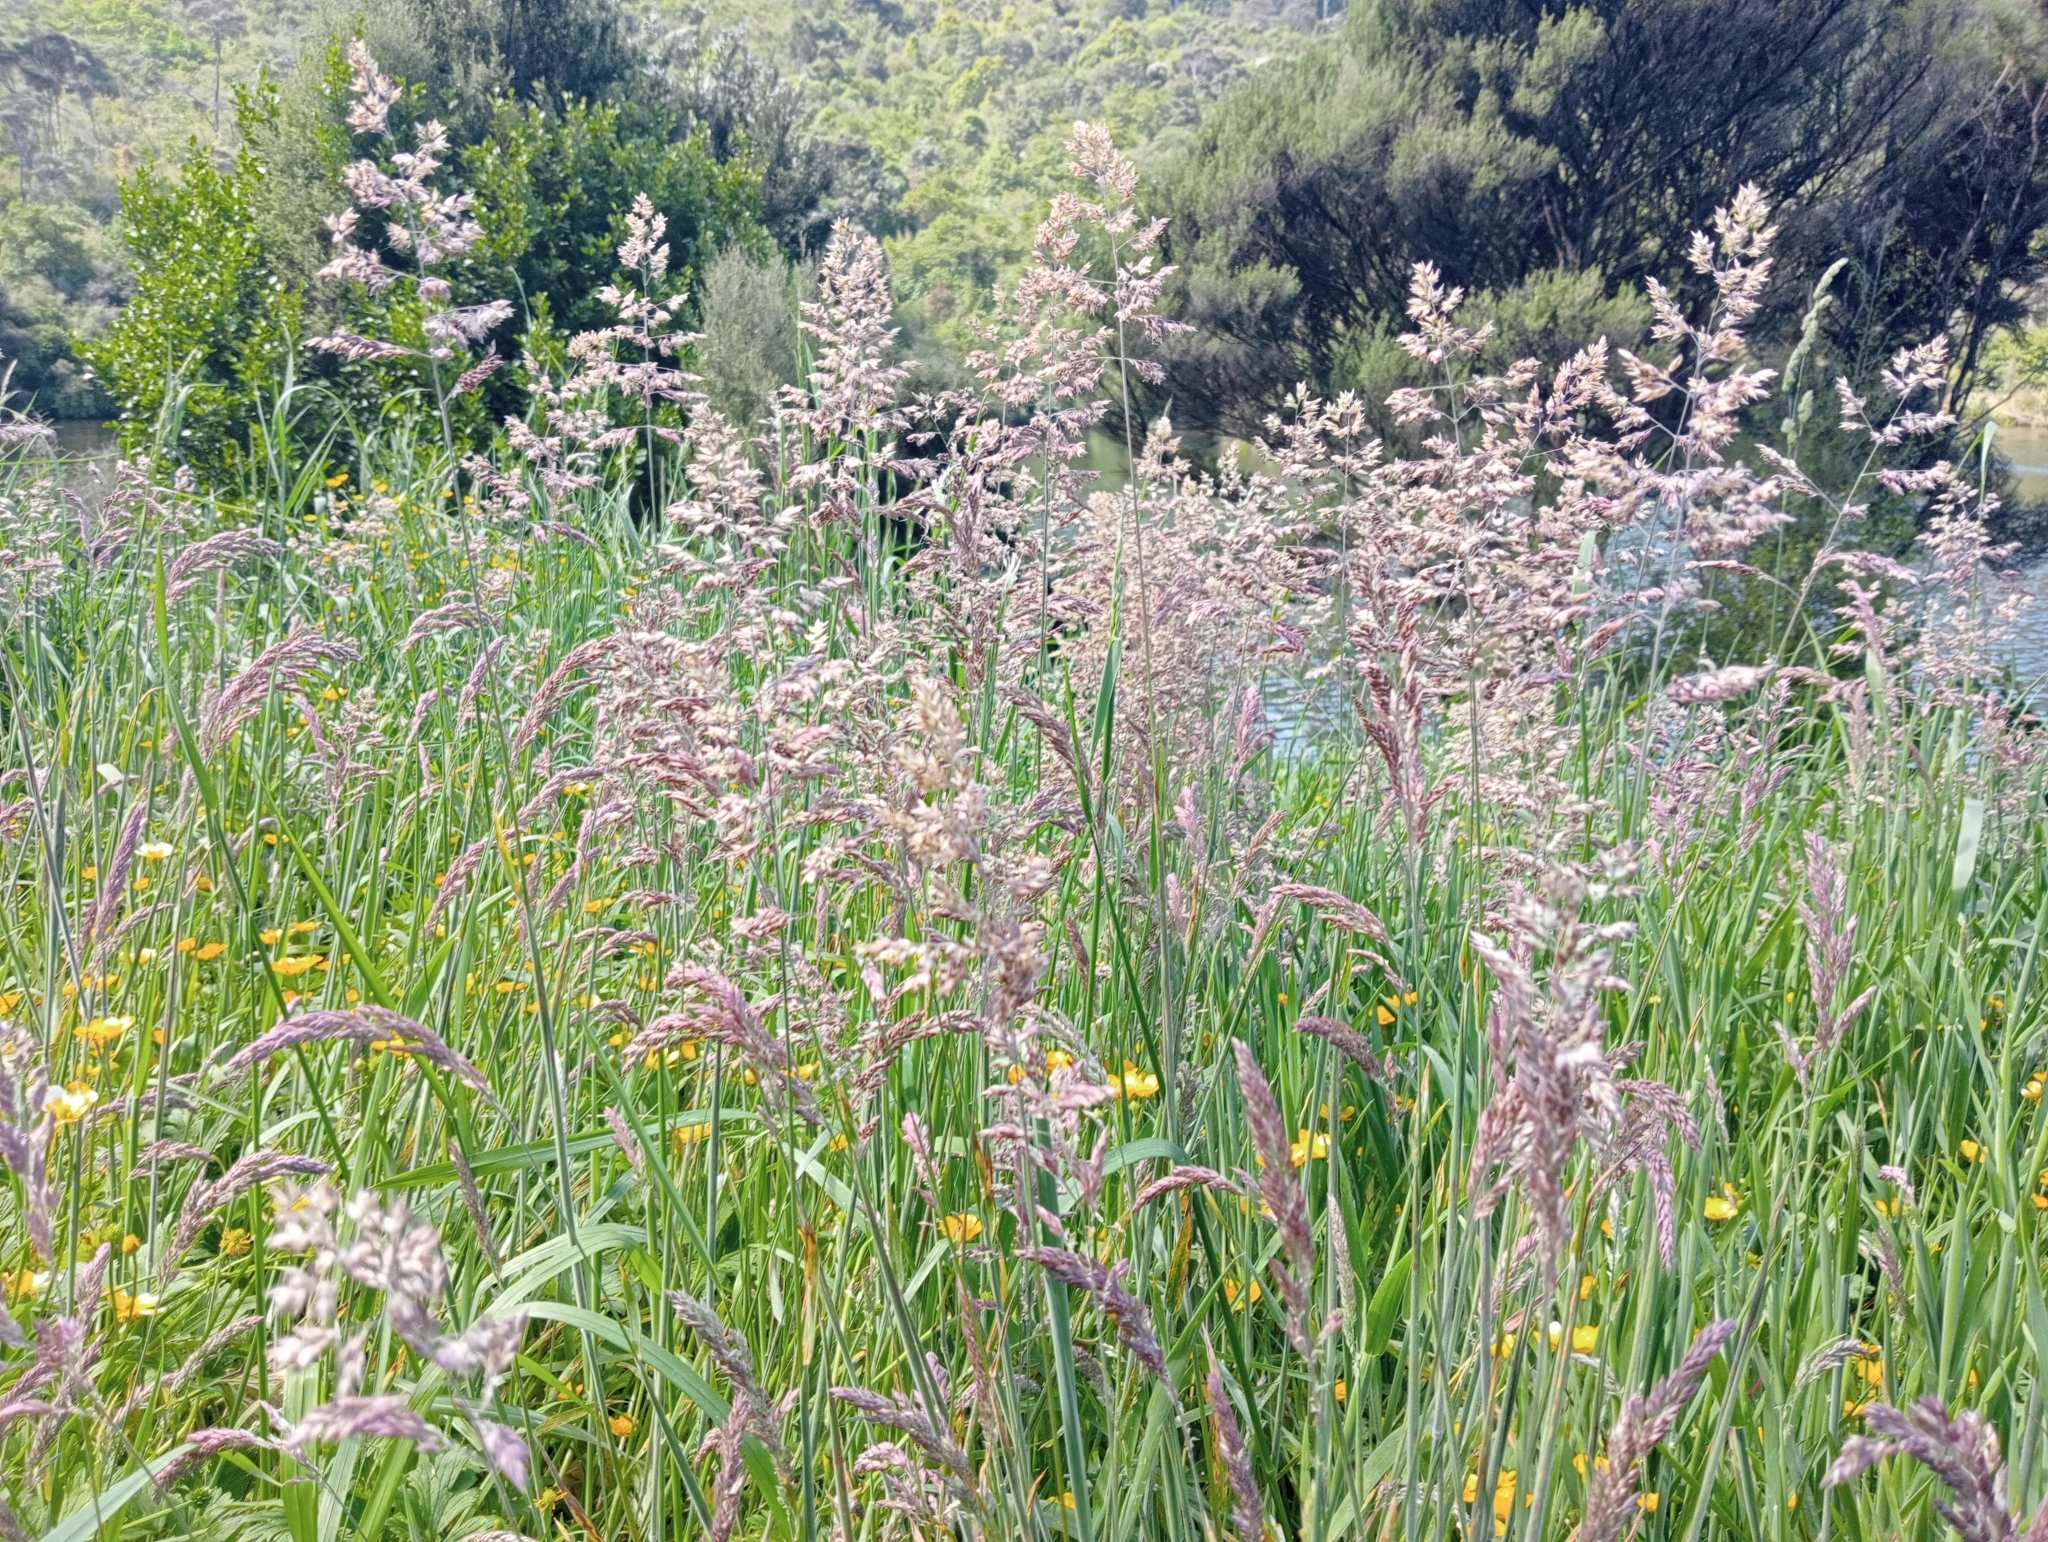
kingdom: Plantae
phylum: Tracheophyta
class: Liliopsida
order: Poales
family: Poaceae
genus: Holcus
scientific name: Holcus lanatus
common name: Yorkshire-fog
